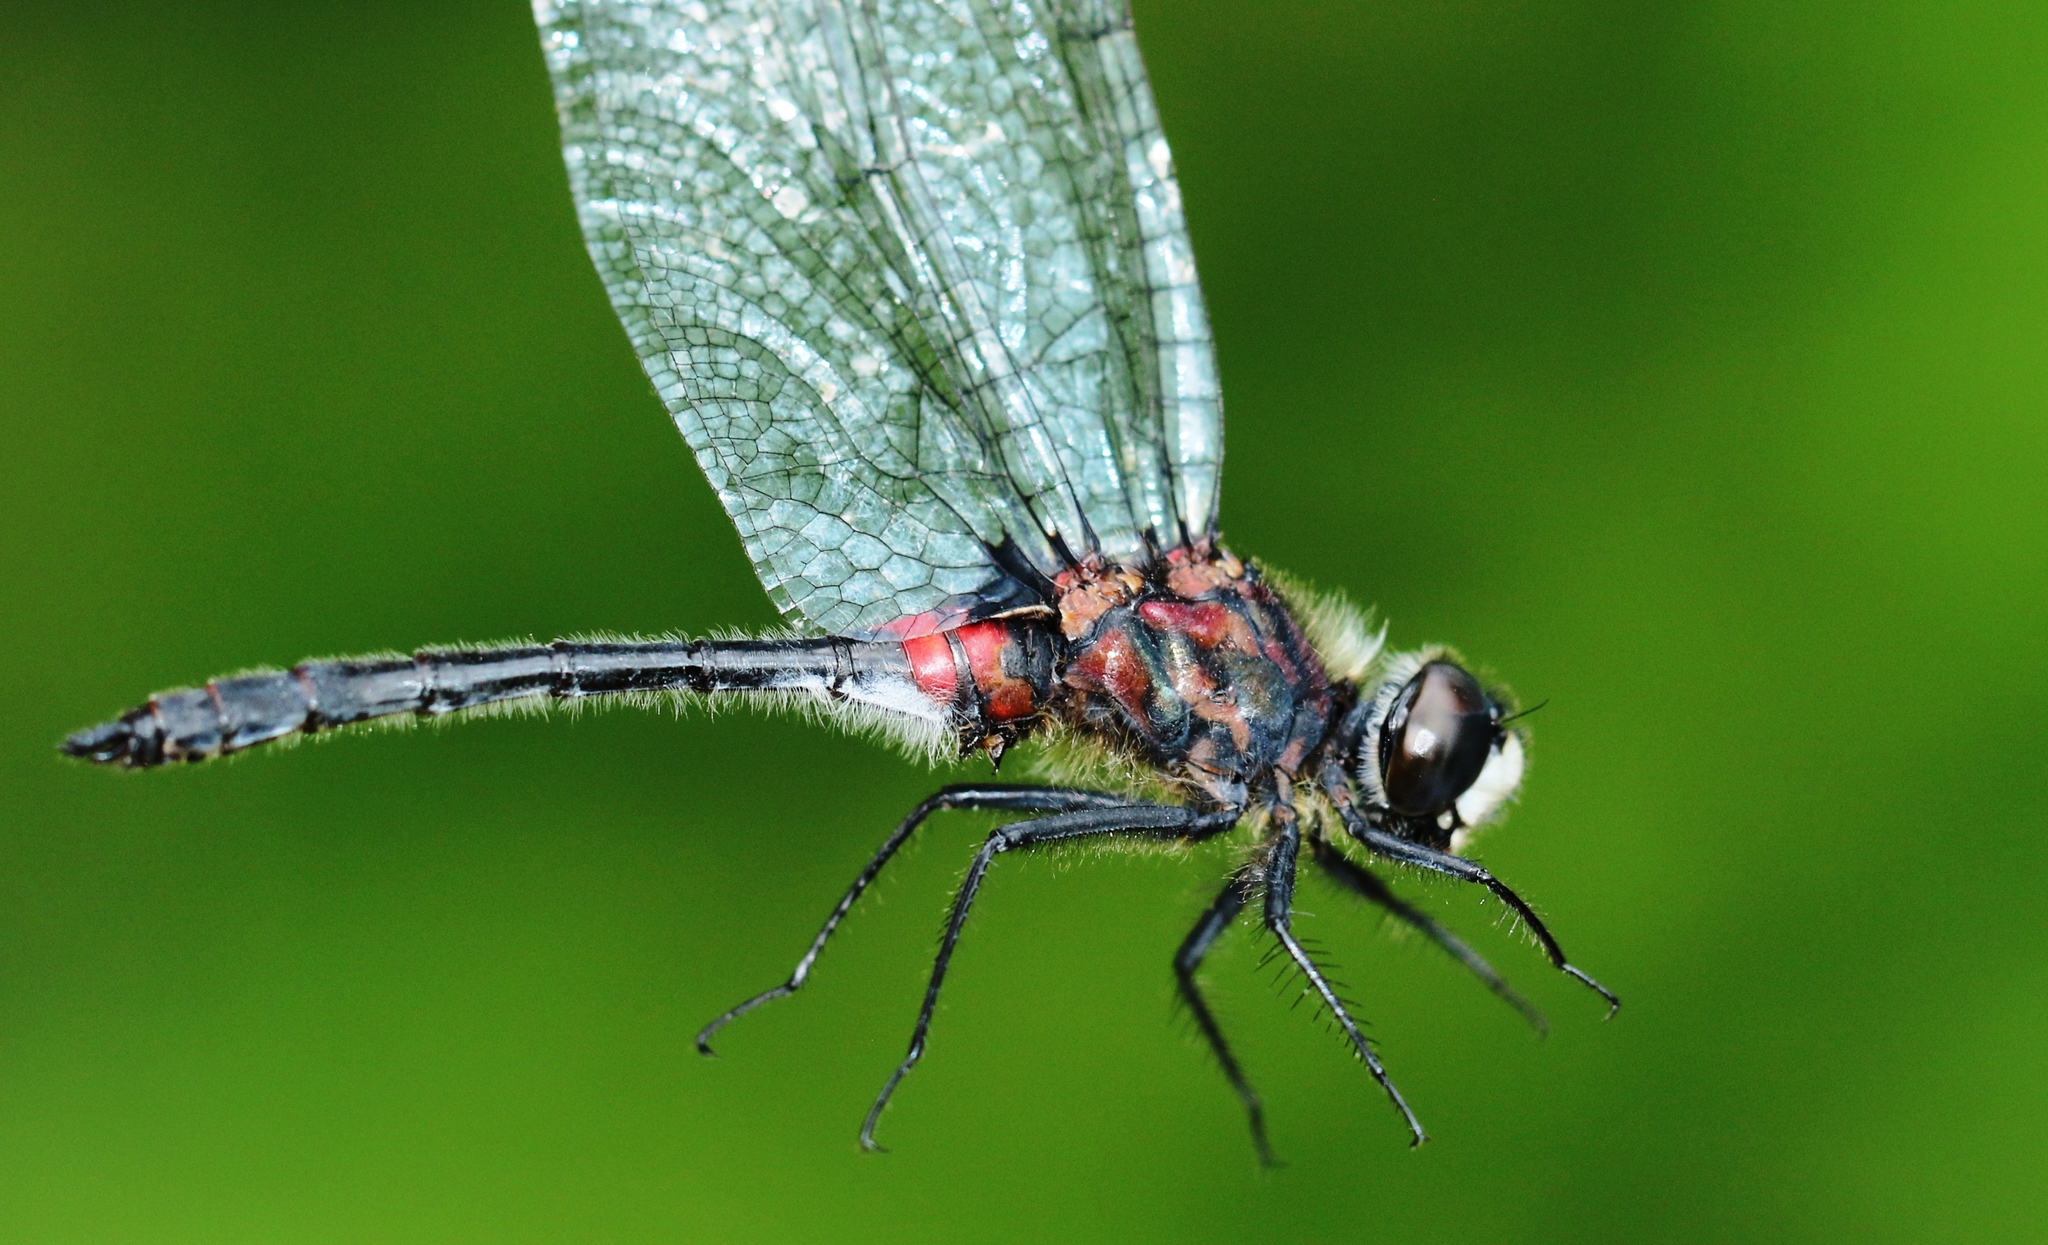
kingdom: Animalia
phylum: Arthropoda
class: Insecta
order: Odonata
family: Libellulidae
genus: Leucorrhinia
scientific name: Leucorrhinia glacialis
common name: Crimson-ringed whiteface
